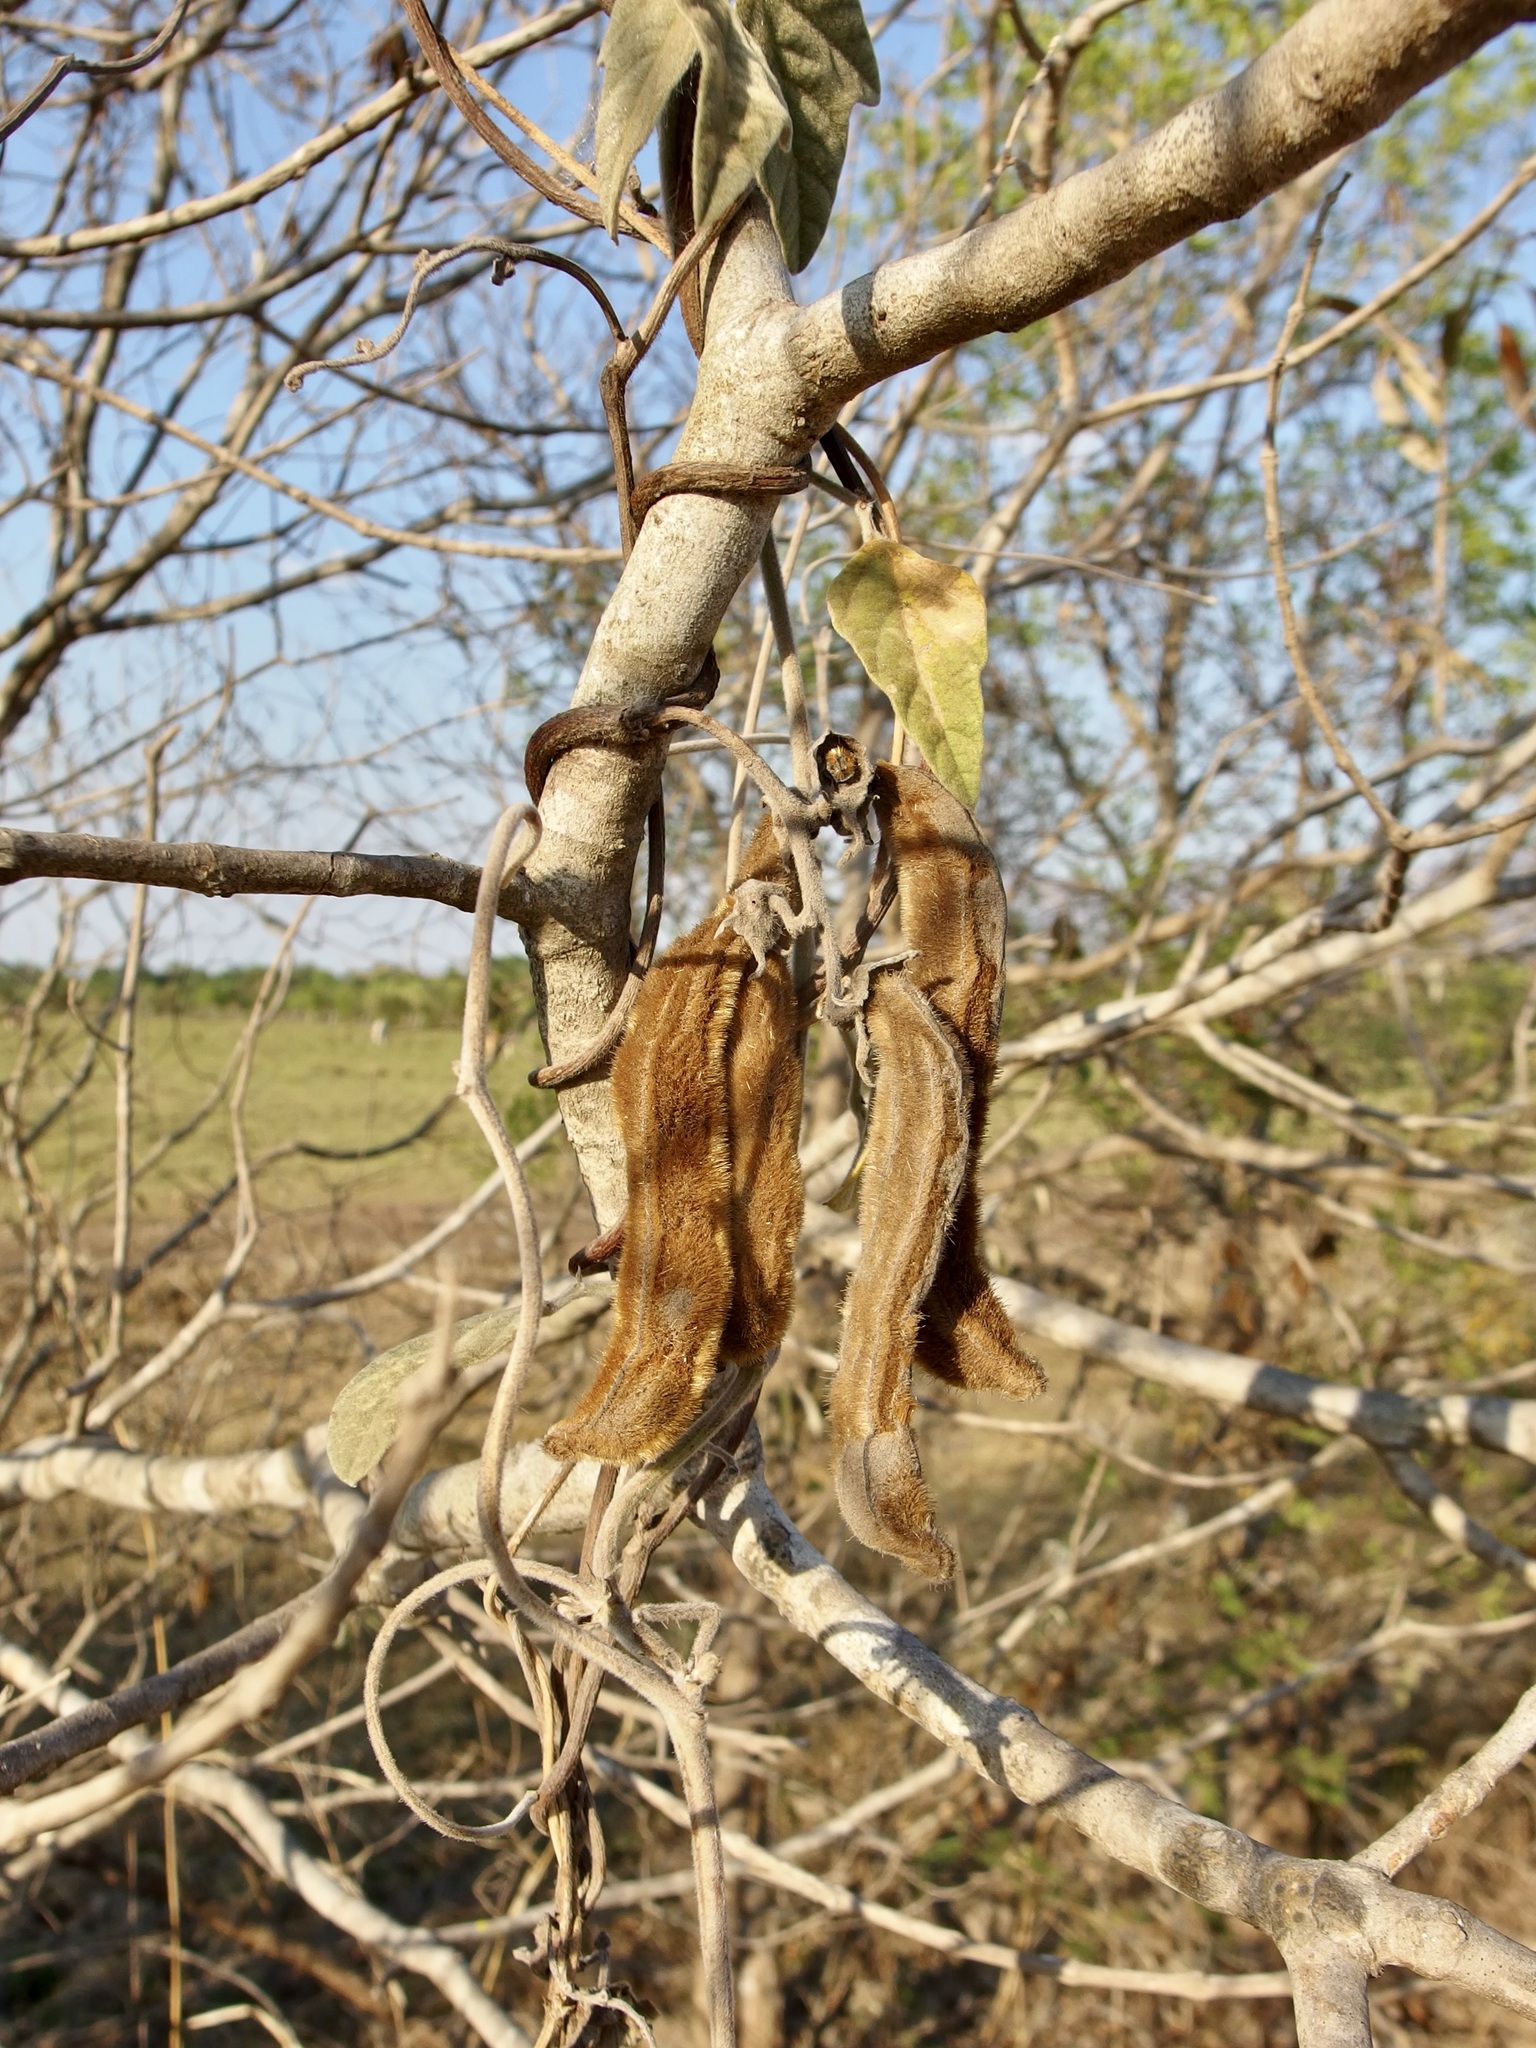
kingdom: Plantae
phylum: Tracheophyta
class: Magnoliopsida
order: Fabales
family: Fabaceae
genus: Mucuna
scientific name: Mucuna pruriens
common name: Cow-itch
